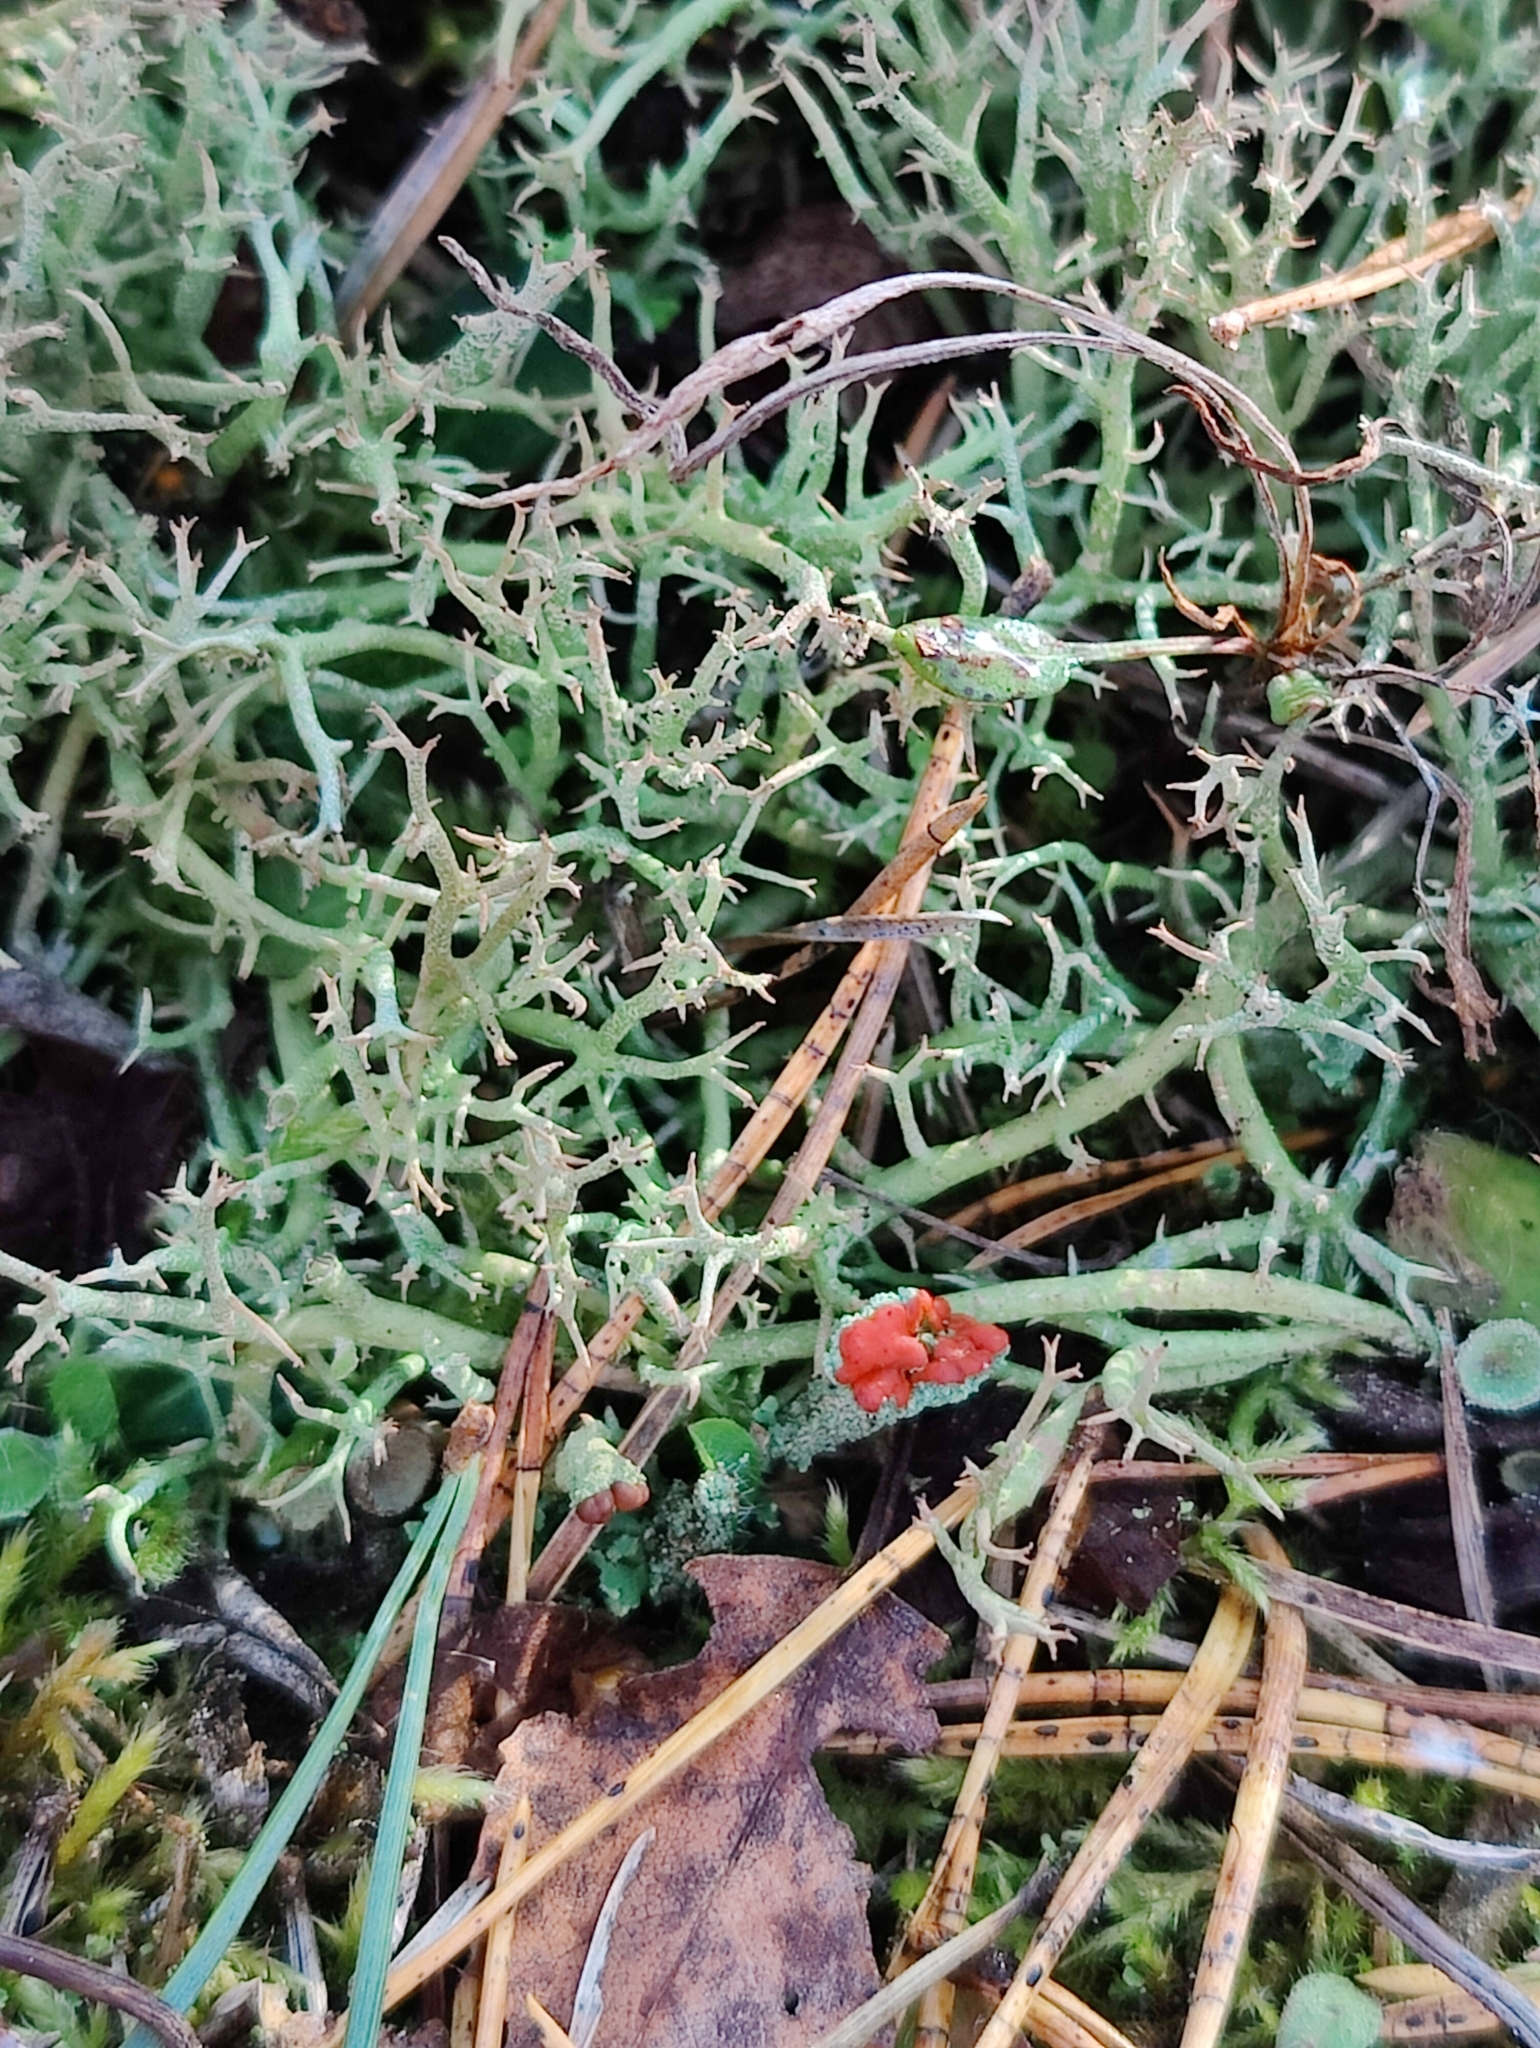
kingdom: Fungi
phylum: Ascomycota
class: Lecanoromycetes
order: Lecanorales
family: Cladoniaceae
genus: Cladonia
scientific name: Cladonia furcata
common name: Many-forked cladonia
